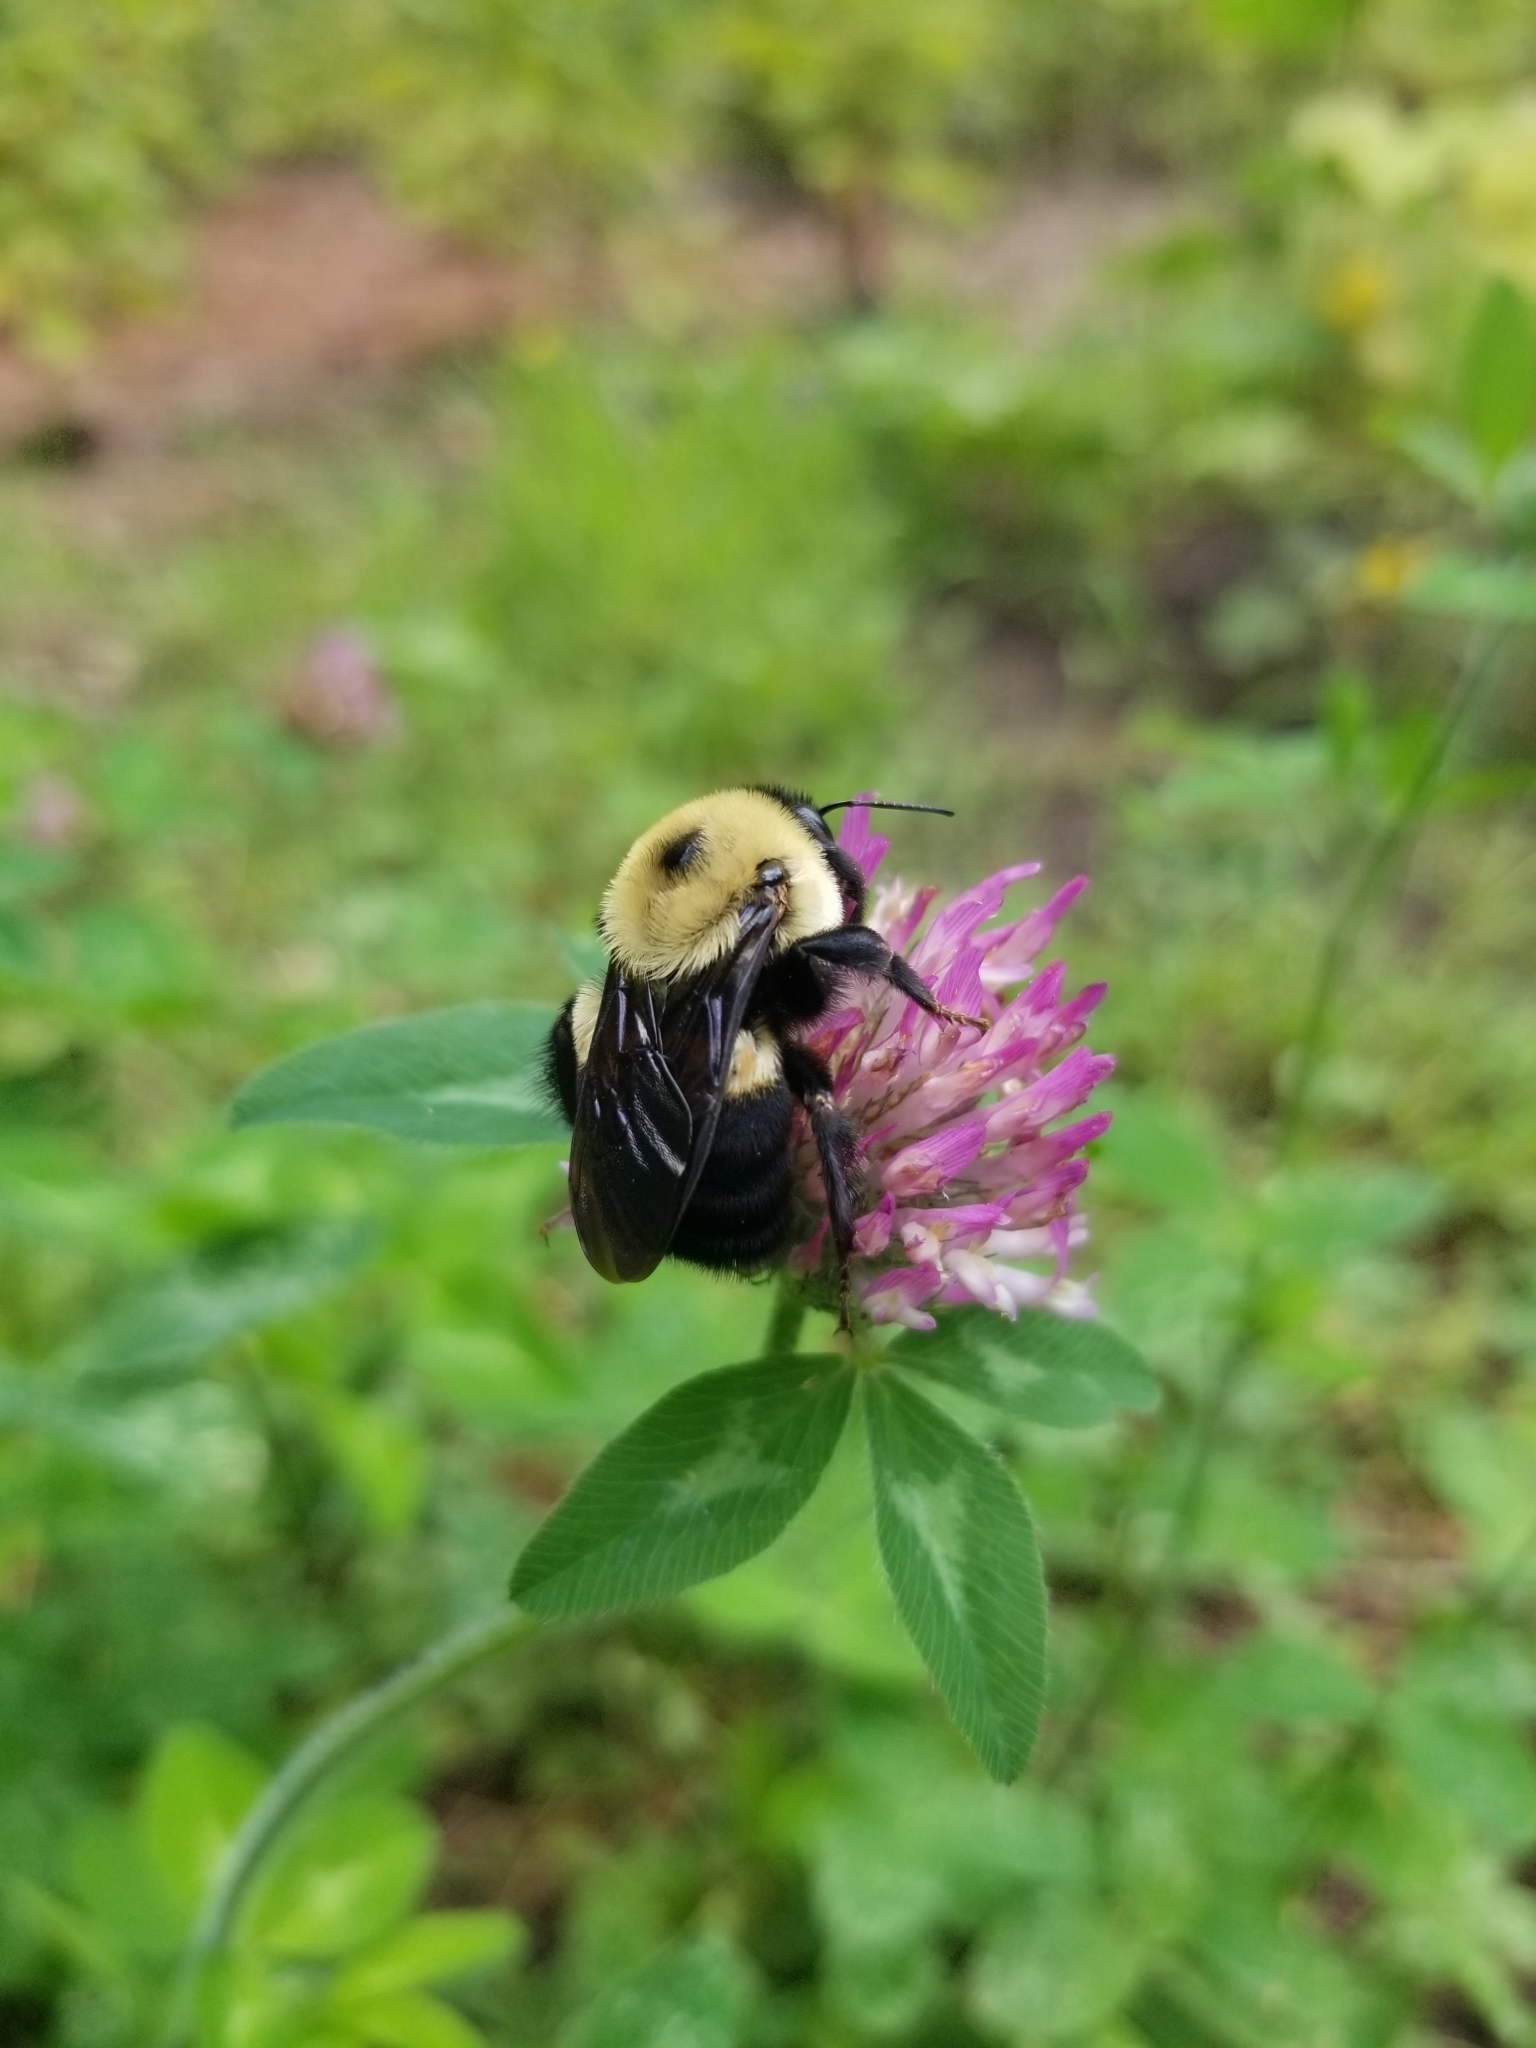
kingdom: Animalia
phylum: Arthropoda
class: Insecta
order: Hymenoptera
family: Apidae
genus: Bombus
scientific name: Bombus griseocollis
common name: Brown-belted bumble bee
